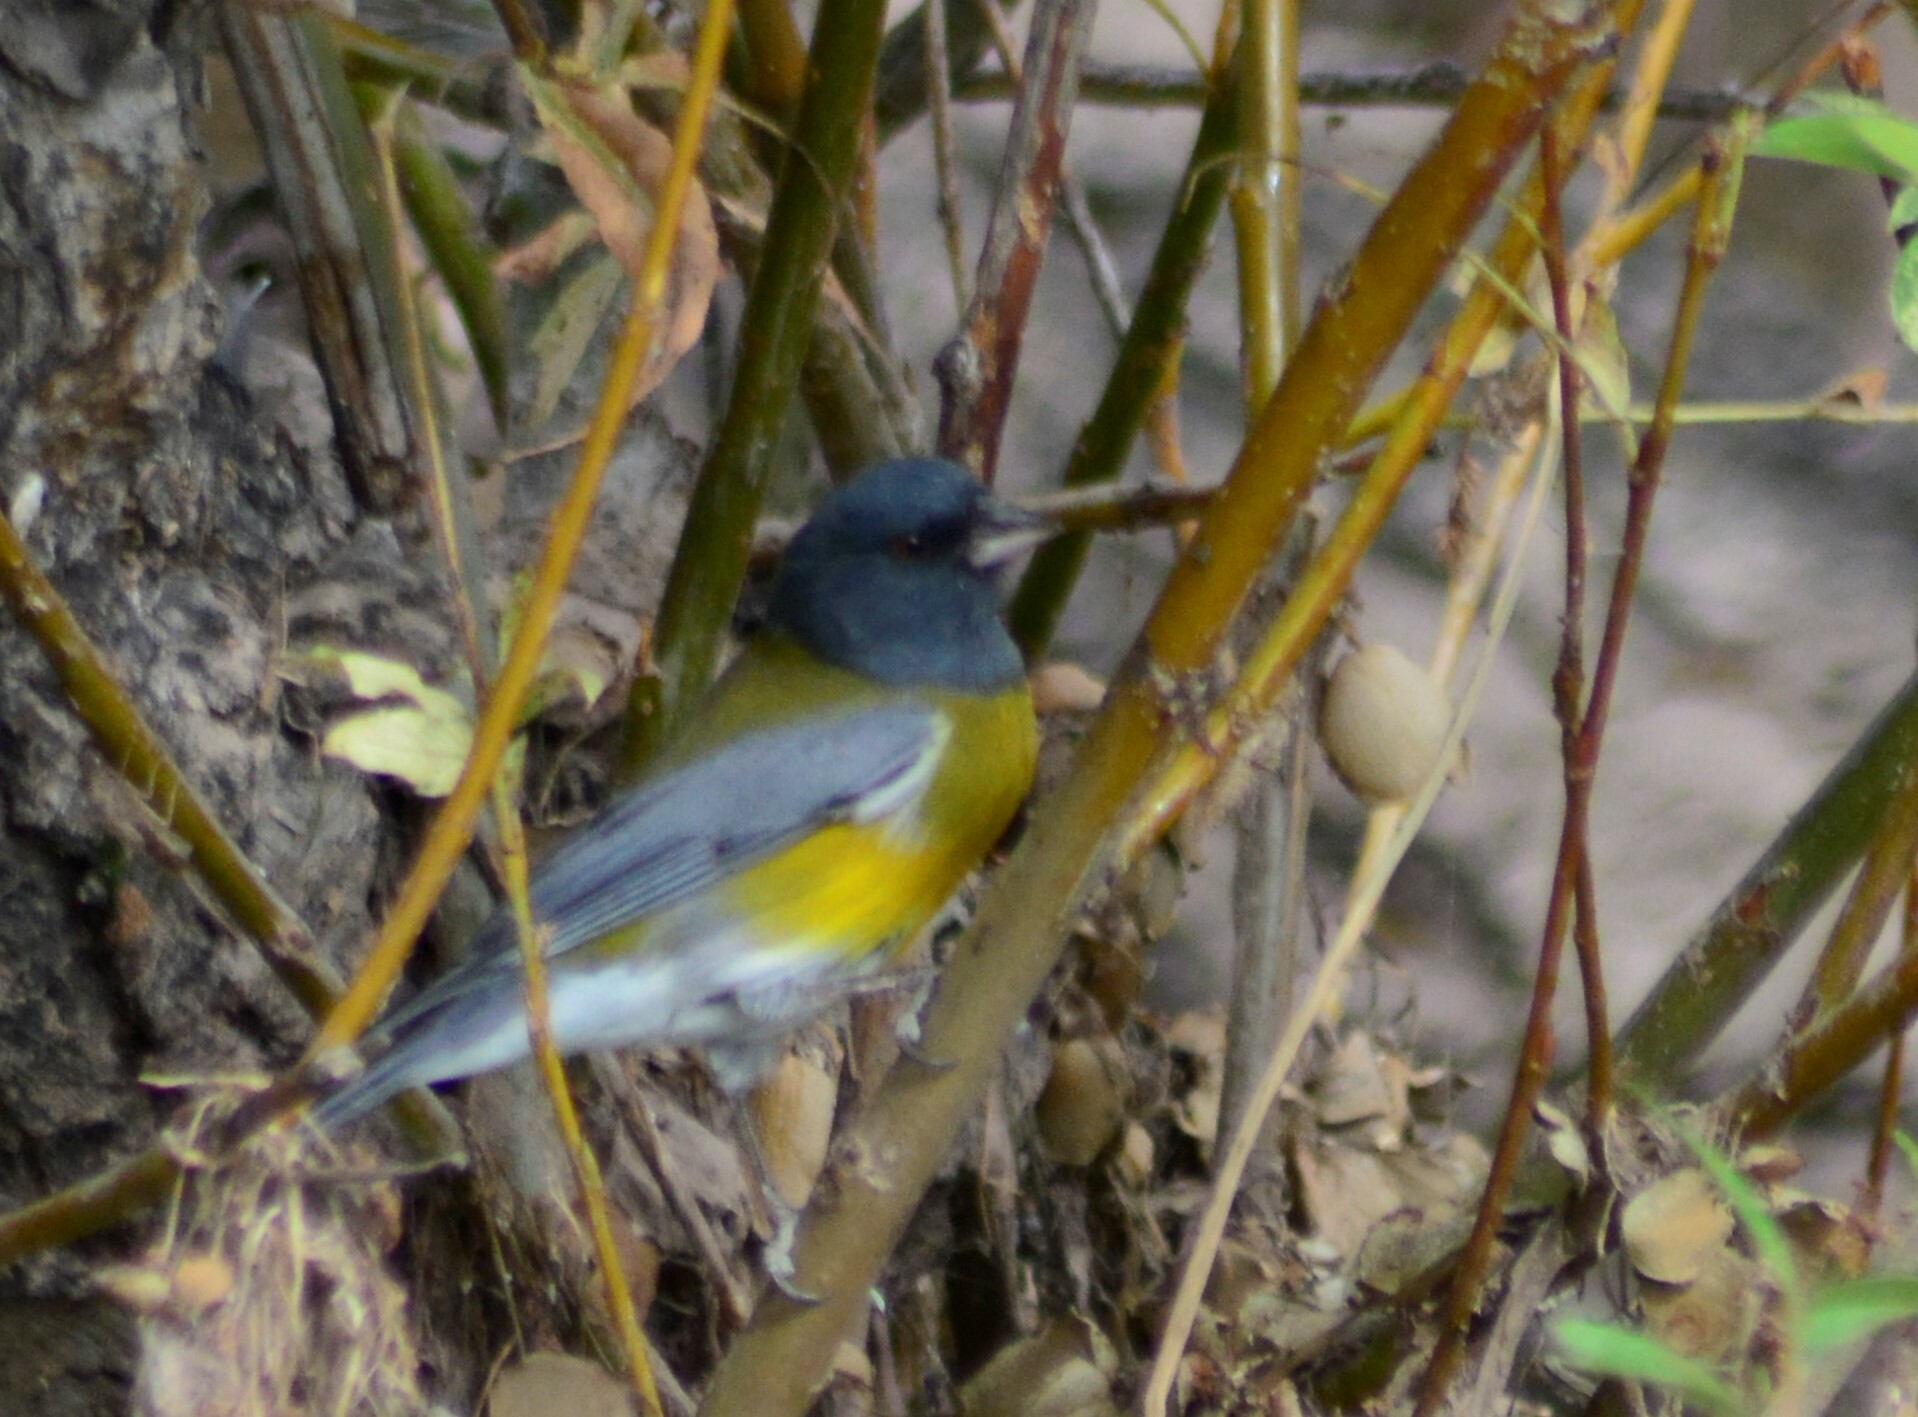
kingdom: Animalia
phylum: Chordata
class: Aves
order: Passeriformes
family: Thraupidae
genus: Phrygilus
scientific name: Phrygilus gayi
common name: Grey-hooded sierra finch
